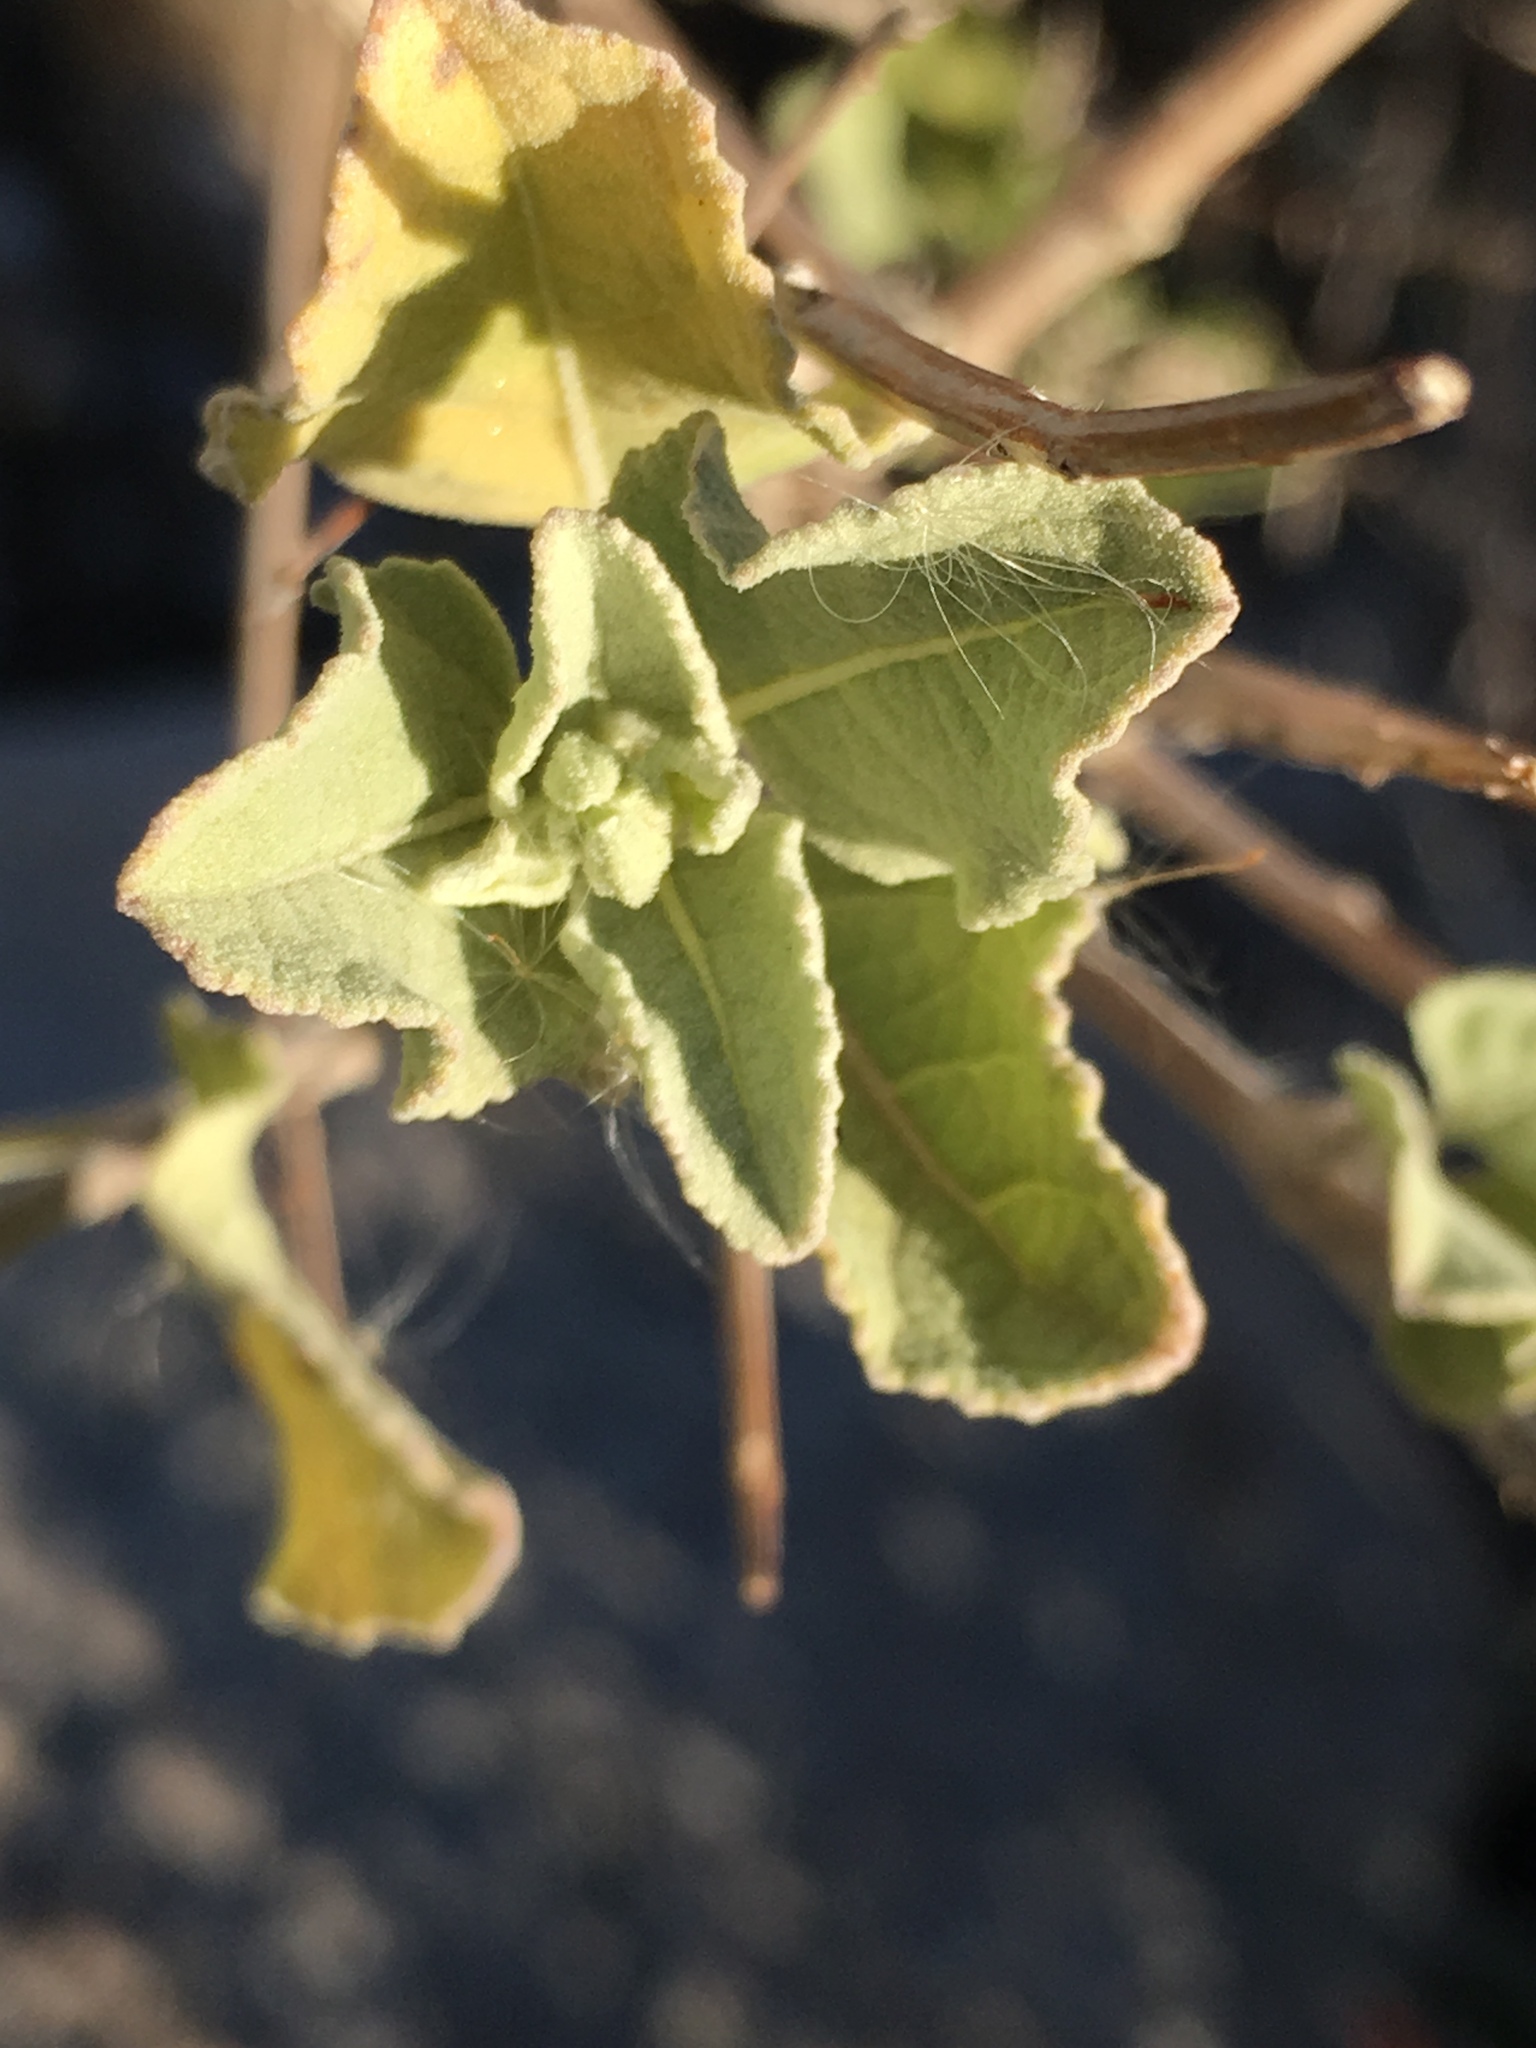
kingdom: Plantae
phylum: Tracheophyta
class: Magnoliopsida
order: Lamiales
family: Lamiaceae
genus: Condea
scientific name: Condea emoryi
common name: Chia
